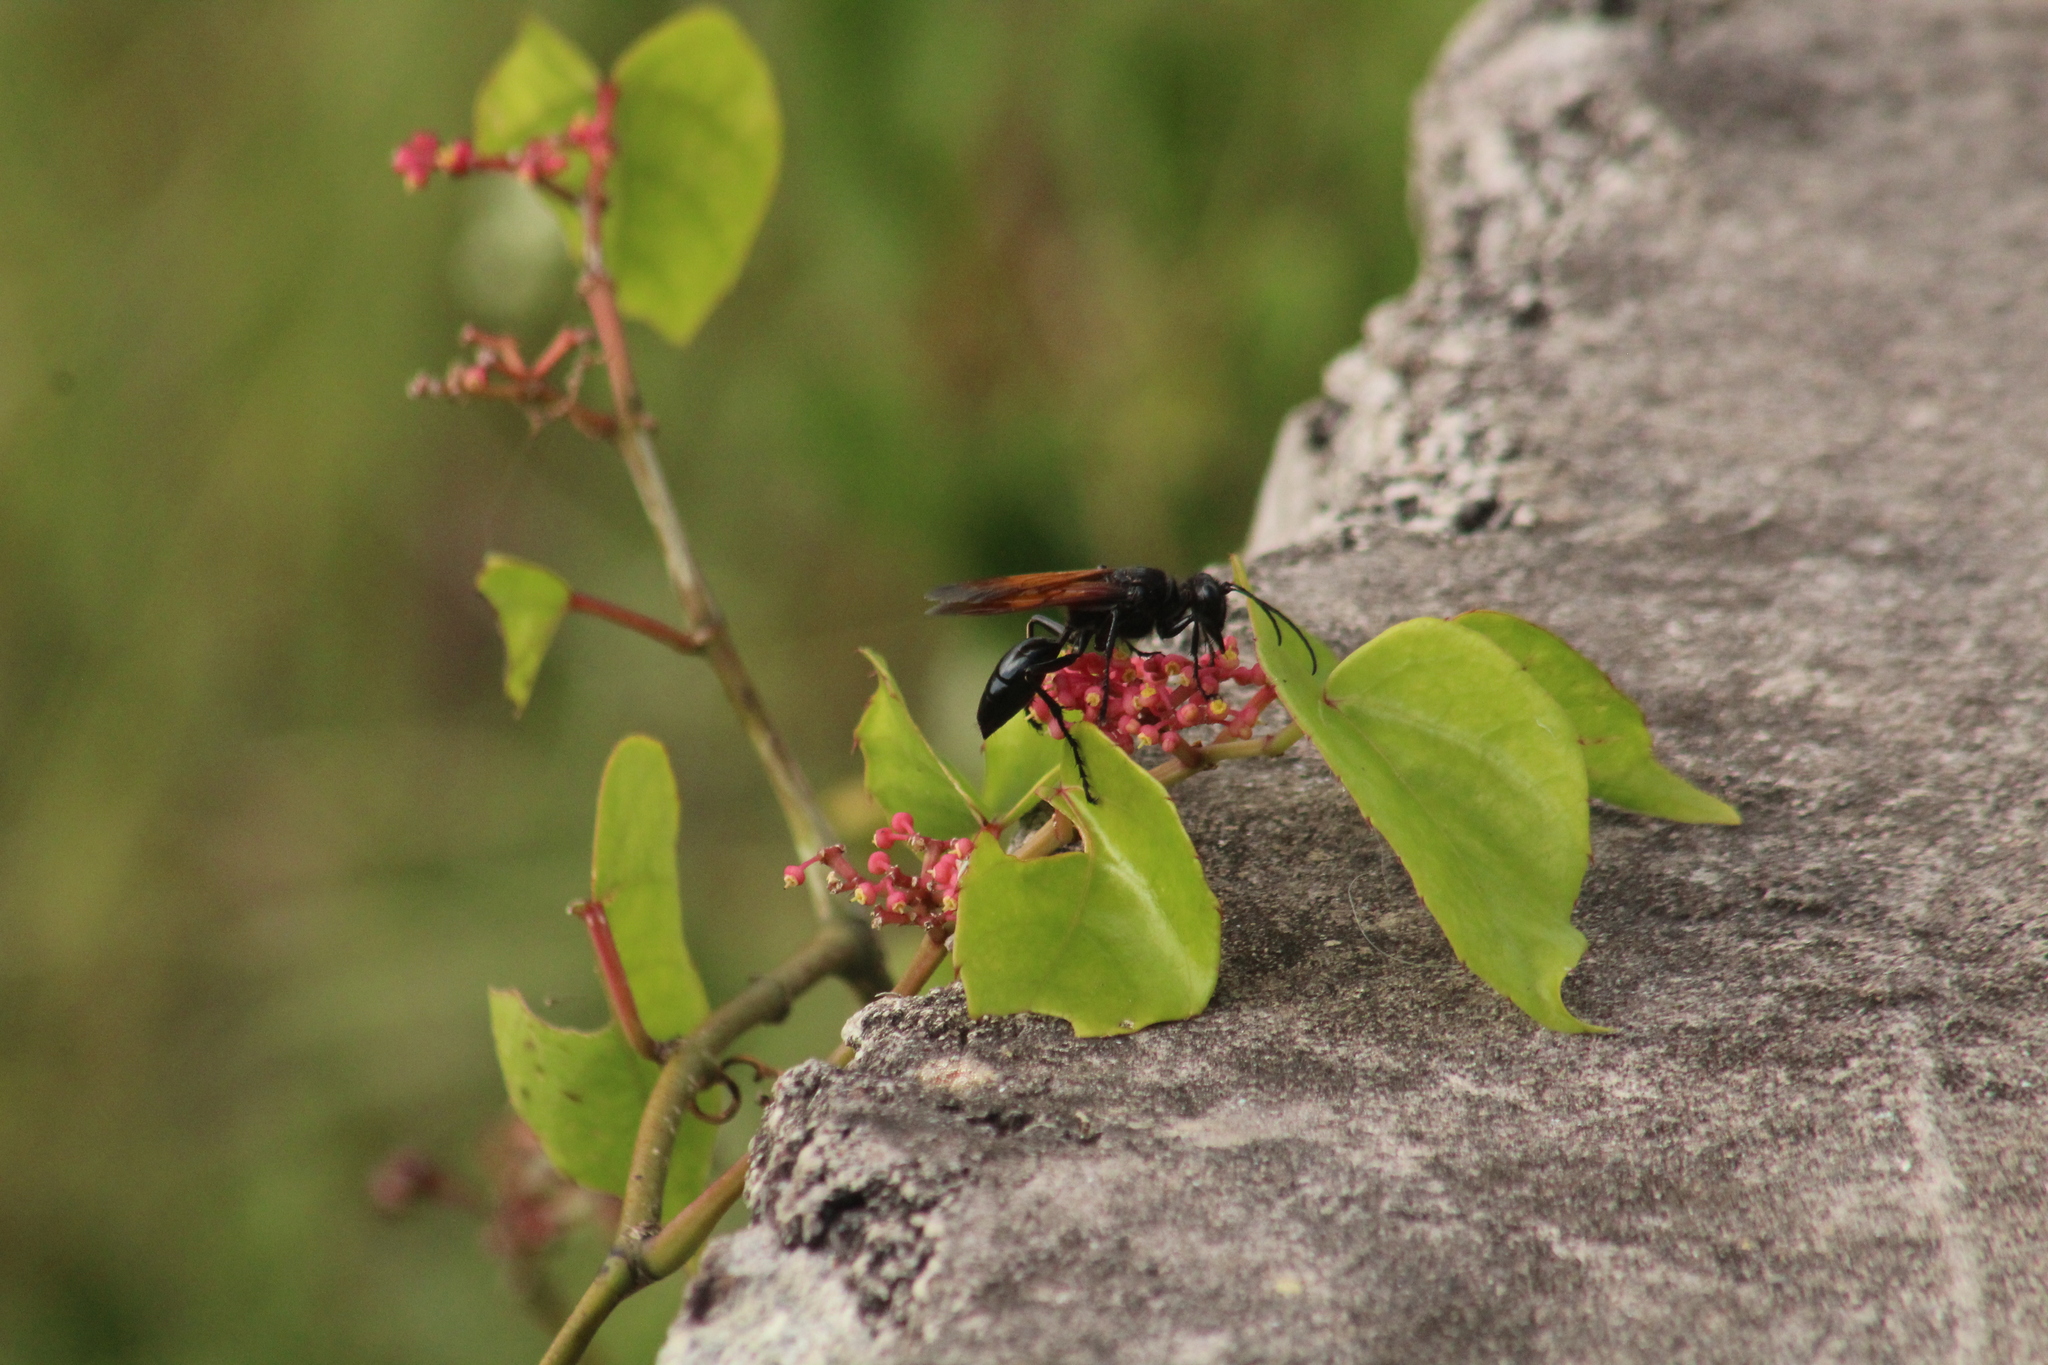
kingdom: Animalia
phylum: Arthropoda
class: Insecta
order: Hymenoptera
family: Sphecidae
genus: Sphex
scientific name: Sphex caliginosus
